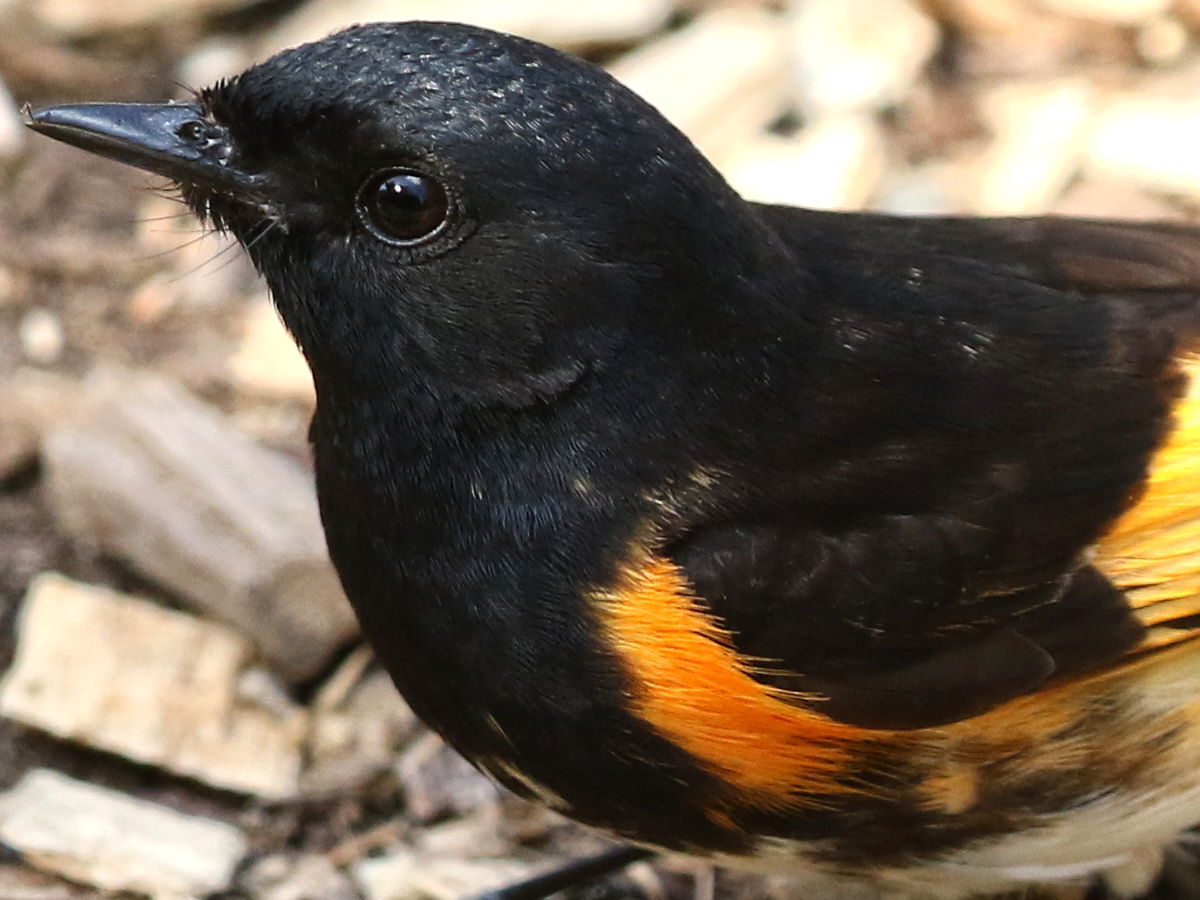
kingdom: Animalia
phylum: Chordata
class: Aves
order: Passeriformes
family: Parulidae
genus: Setophaga
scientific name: Setophaga ruticilla
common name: American redstart
